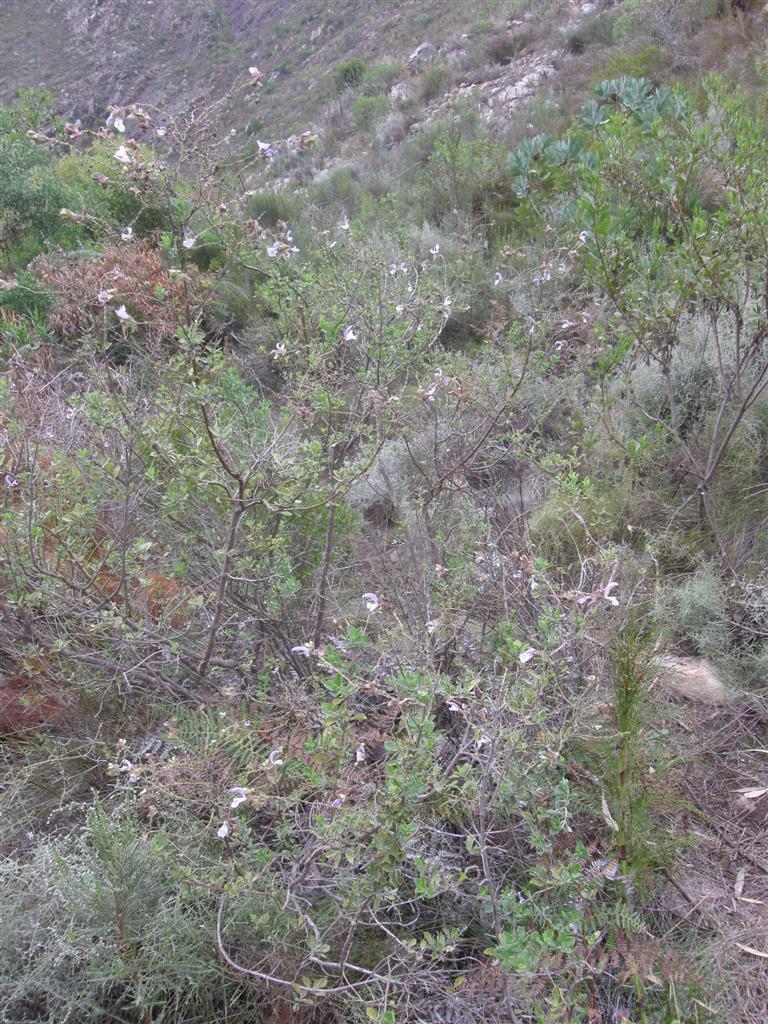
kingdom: Plantae
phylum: Tracheophyta
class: Magnoliopsida
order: Lamiales
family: Lamiaceae
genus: Salvia
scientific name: Salvia chamelaeagnea
